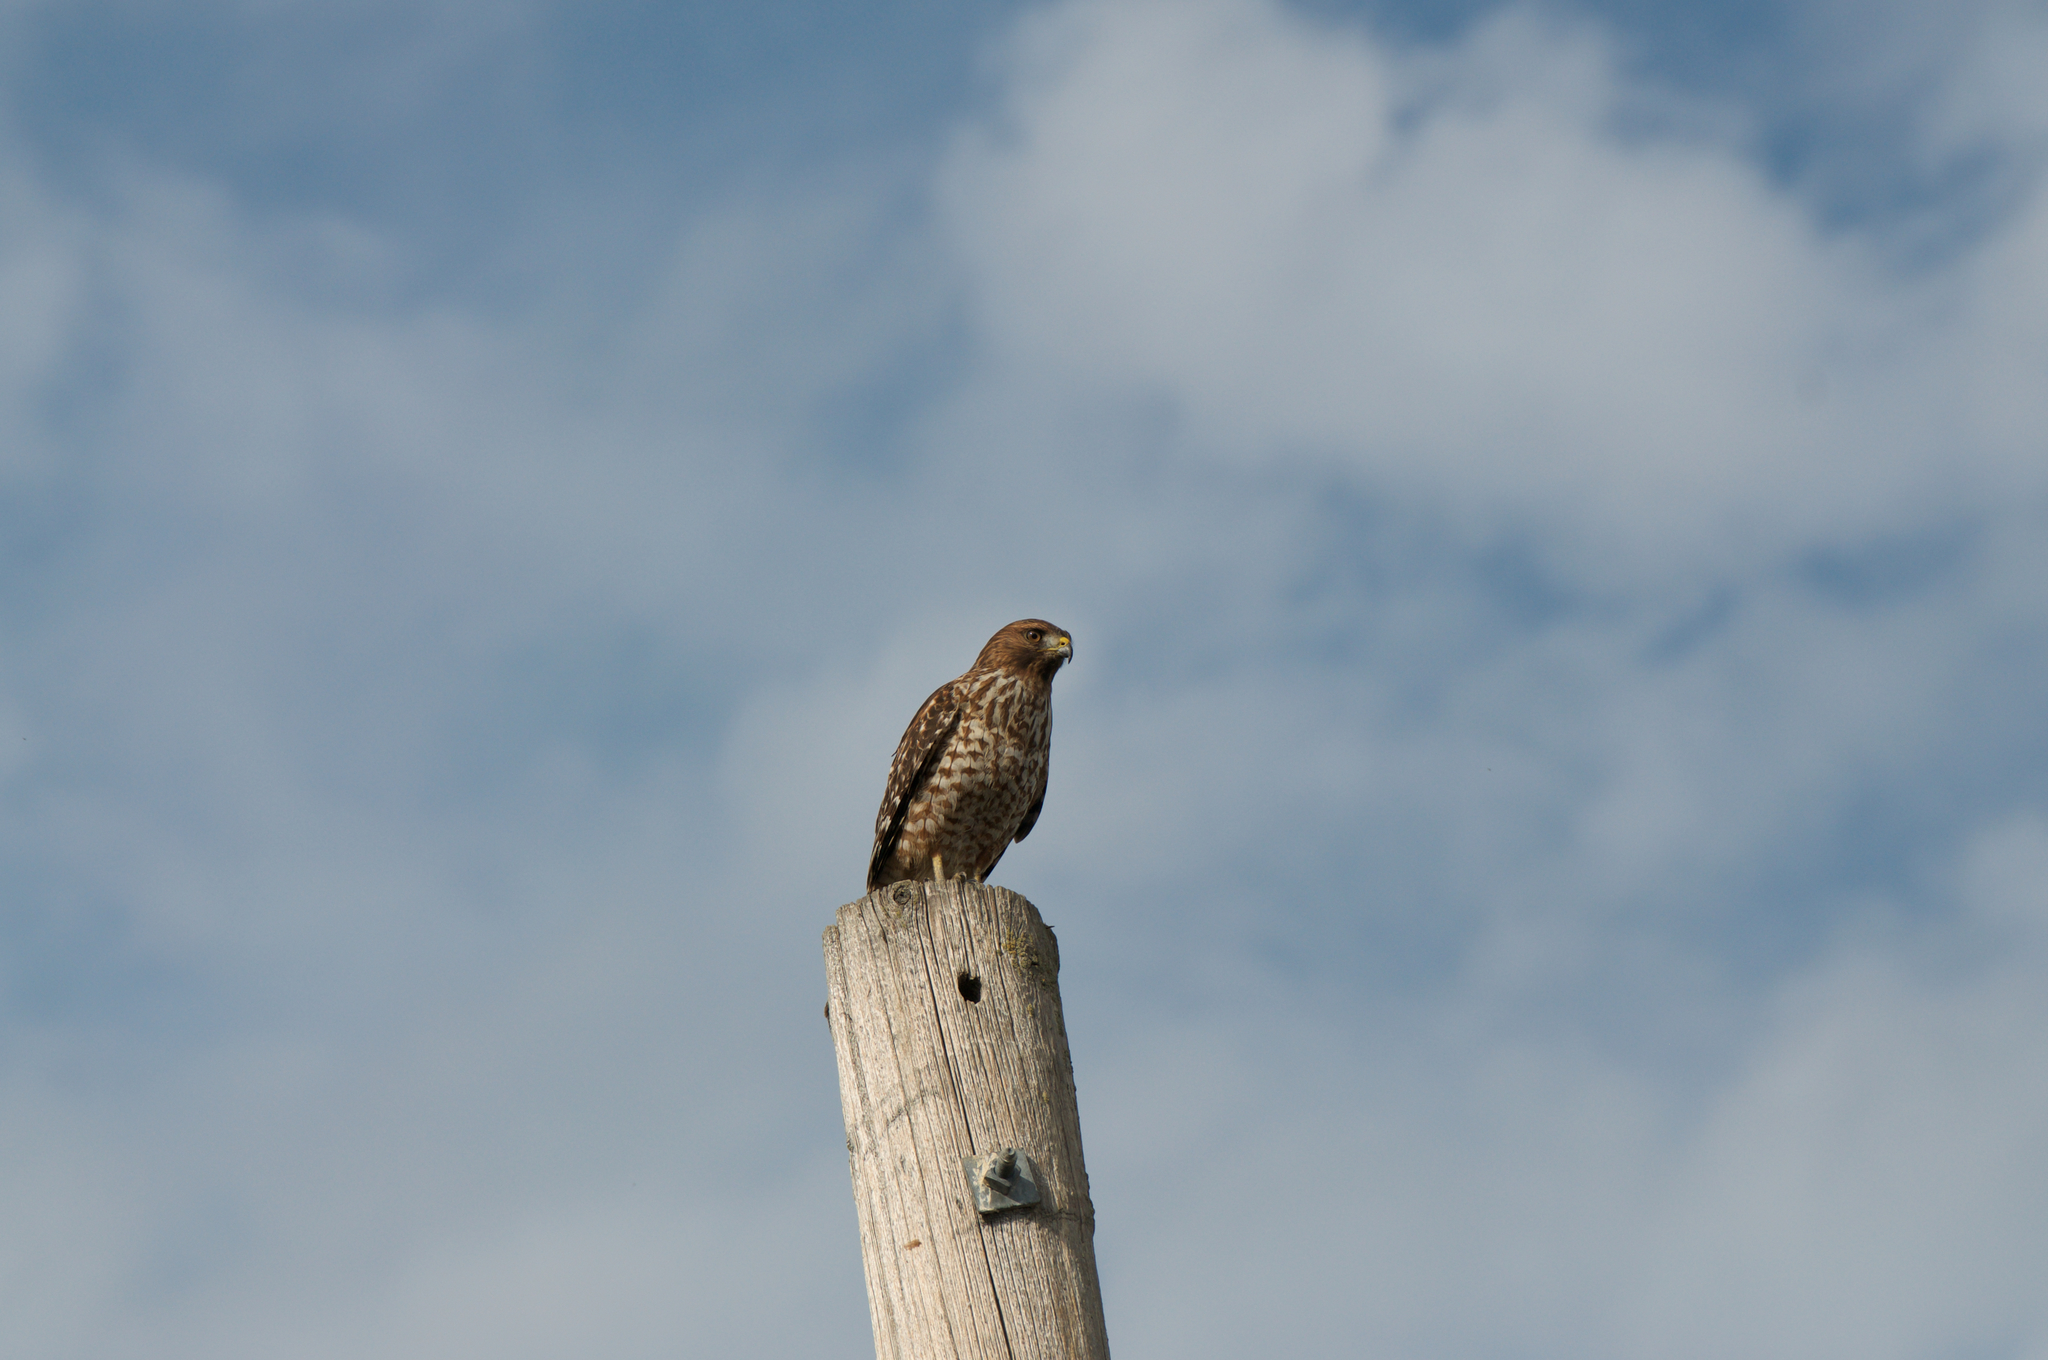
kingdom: Animalia
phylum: Chordata
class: Aves
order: Accipitriformes
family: Accipitridae
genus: Buteo
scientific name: Buteo lineatus
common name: Red-shouldered hawk
